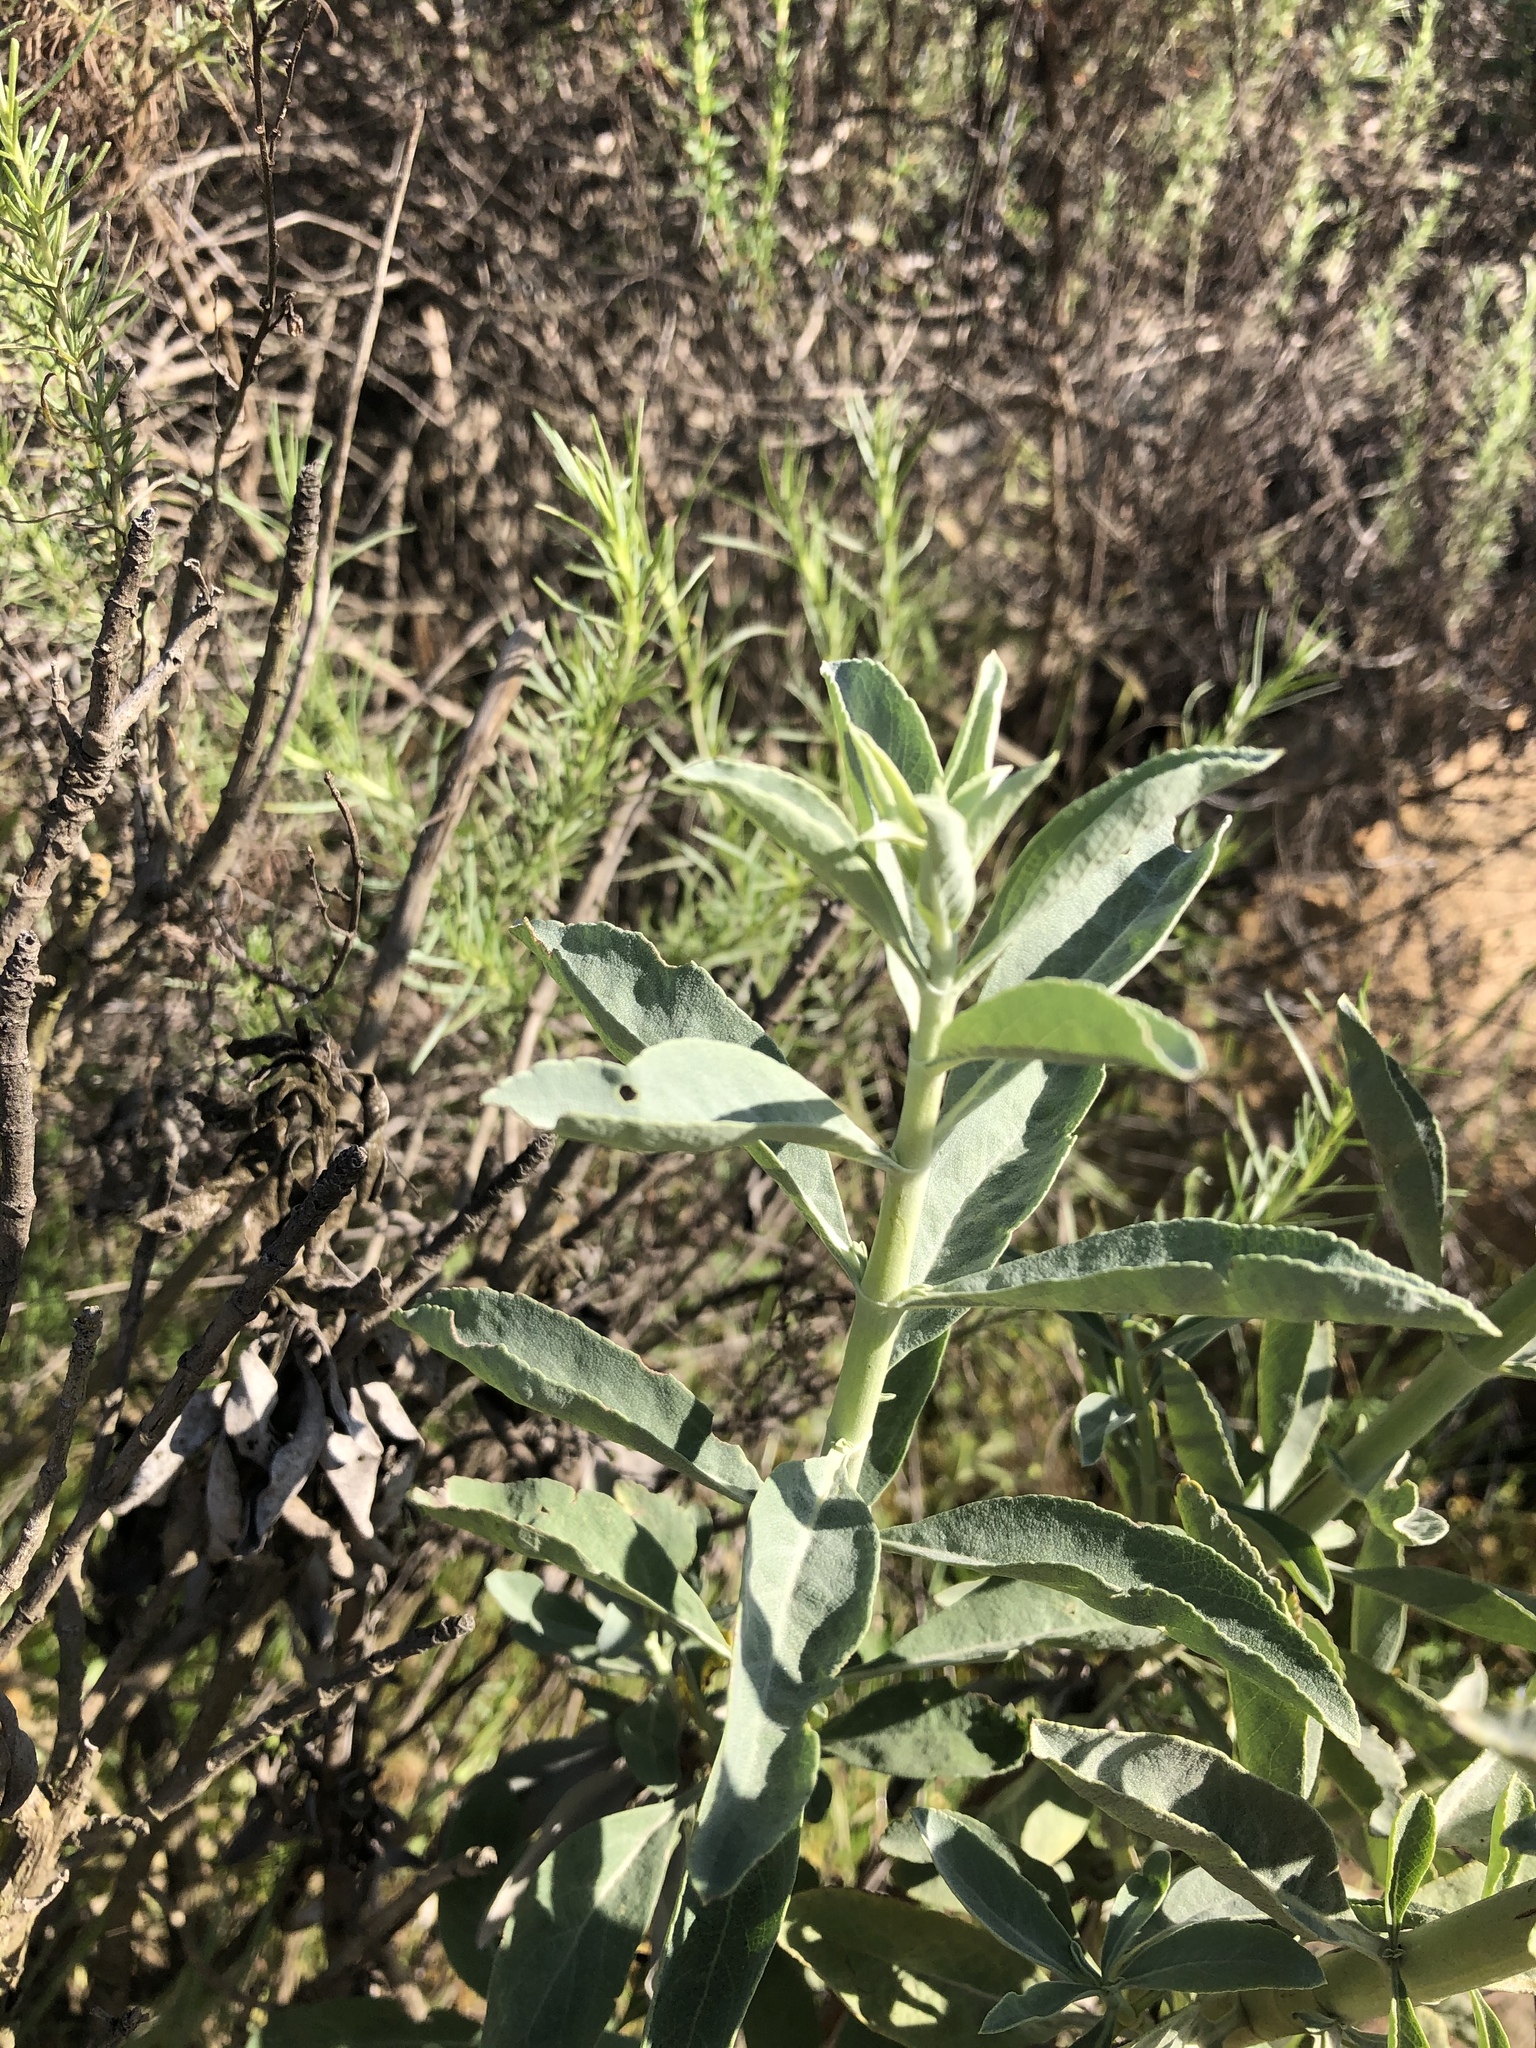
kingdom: Plantae
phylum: Tracheophyta
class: Magnoliopsida
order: Lamiales
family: Lamiaceae
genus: Salvia
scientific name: Salvia apiana
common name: White sage
